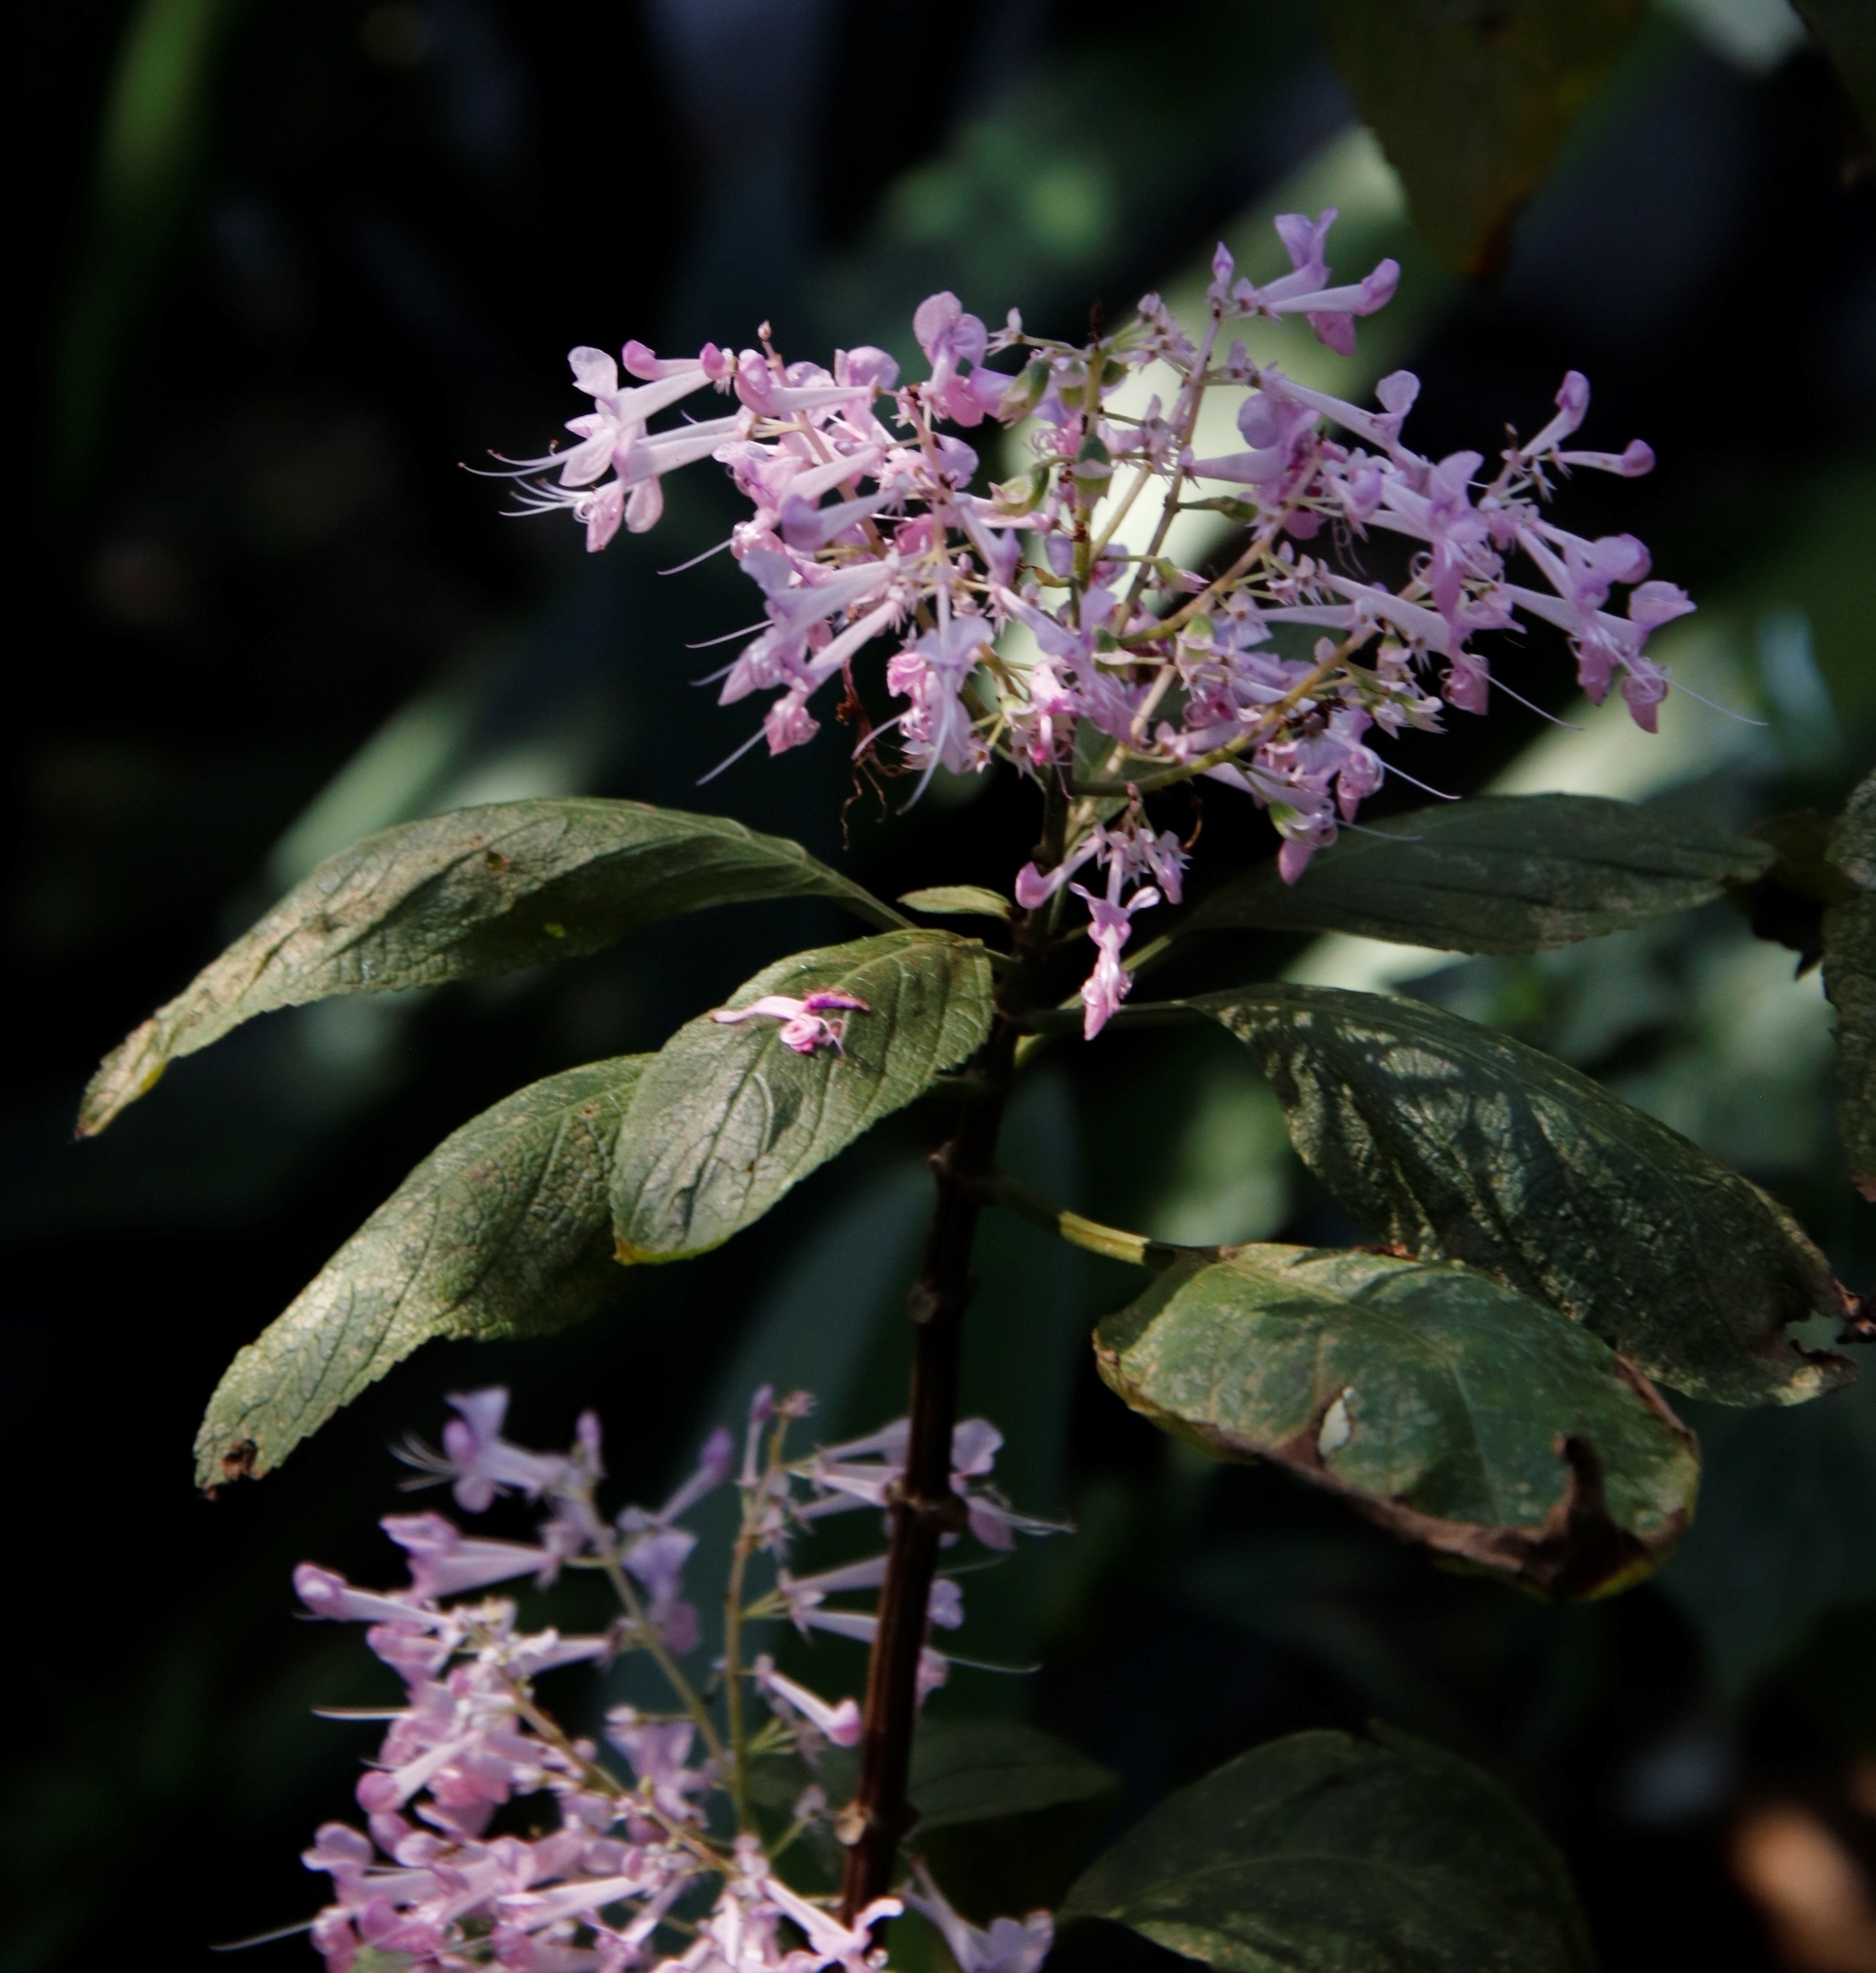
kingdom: Plantae
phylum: Tracheophyta
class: Magnoliopsida
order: Lamiales
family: Lamiaceae
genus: Plectranthus
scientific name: Plectranthus ecklonii
